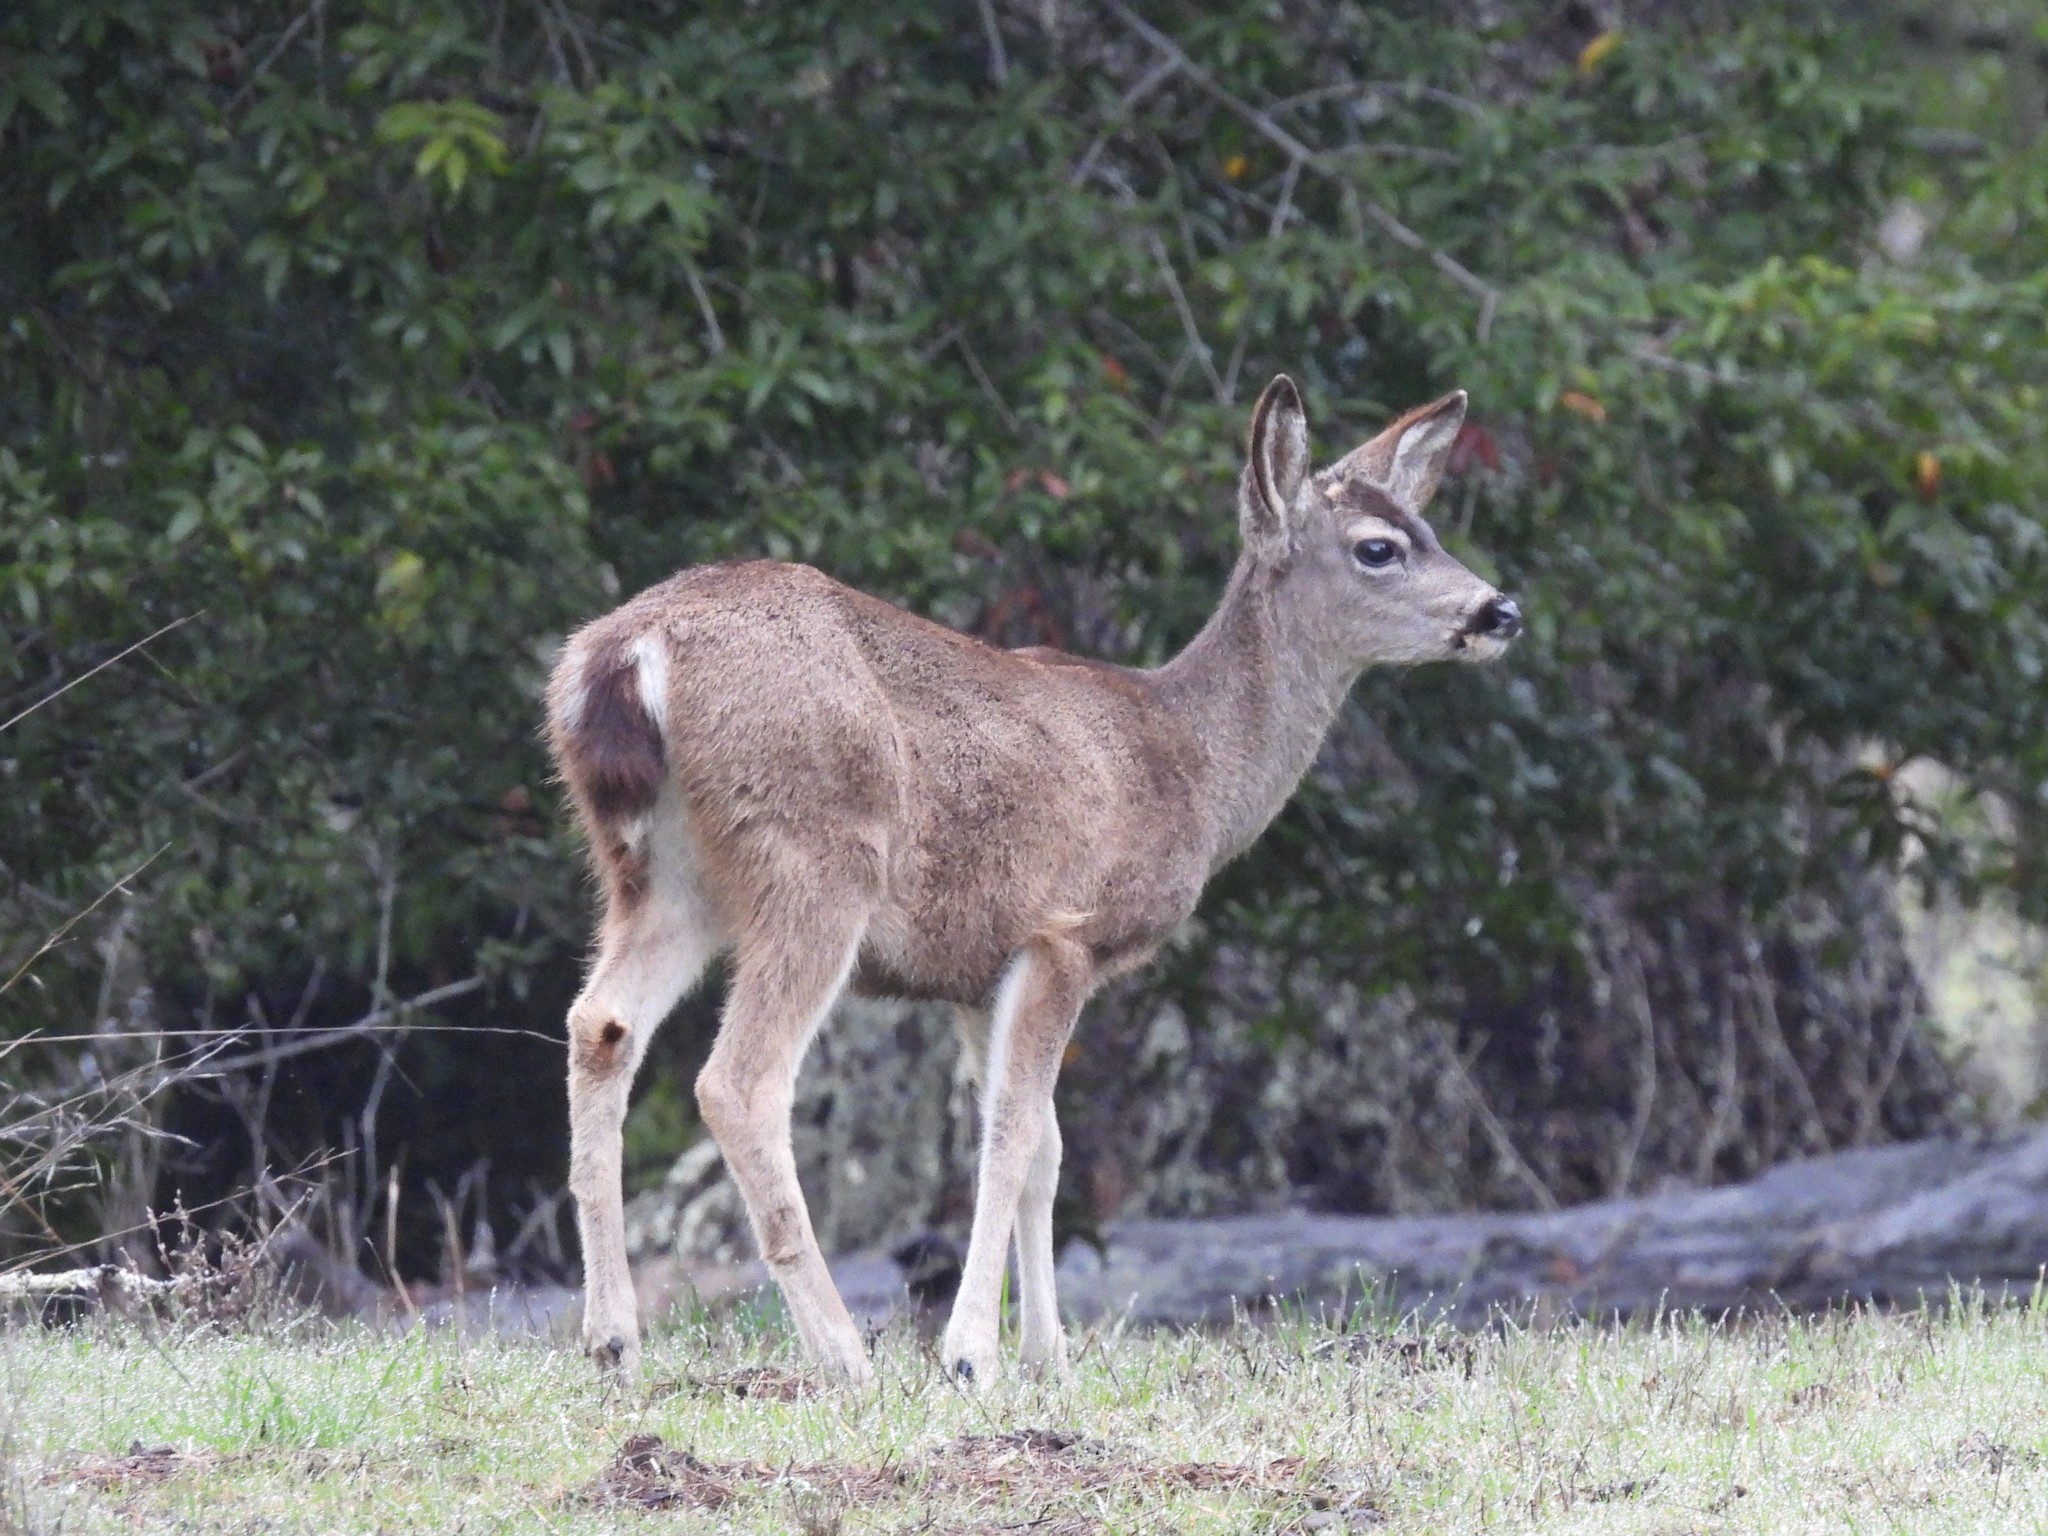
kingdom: Animalia
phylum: Chordata
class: Mammalia
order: Artiodactyla
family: Cervidae
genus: Odocoileus
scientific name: Odocoileus hemionus
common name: Mule deer
